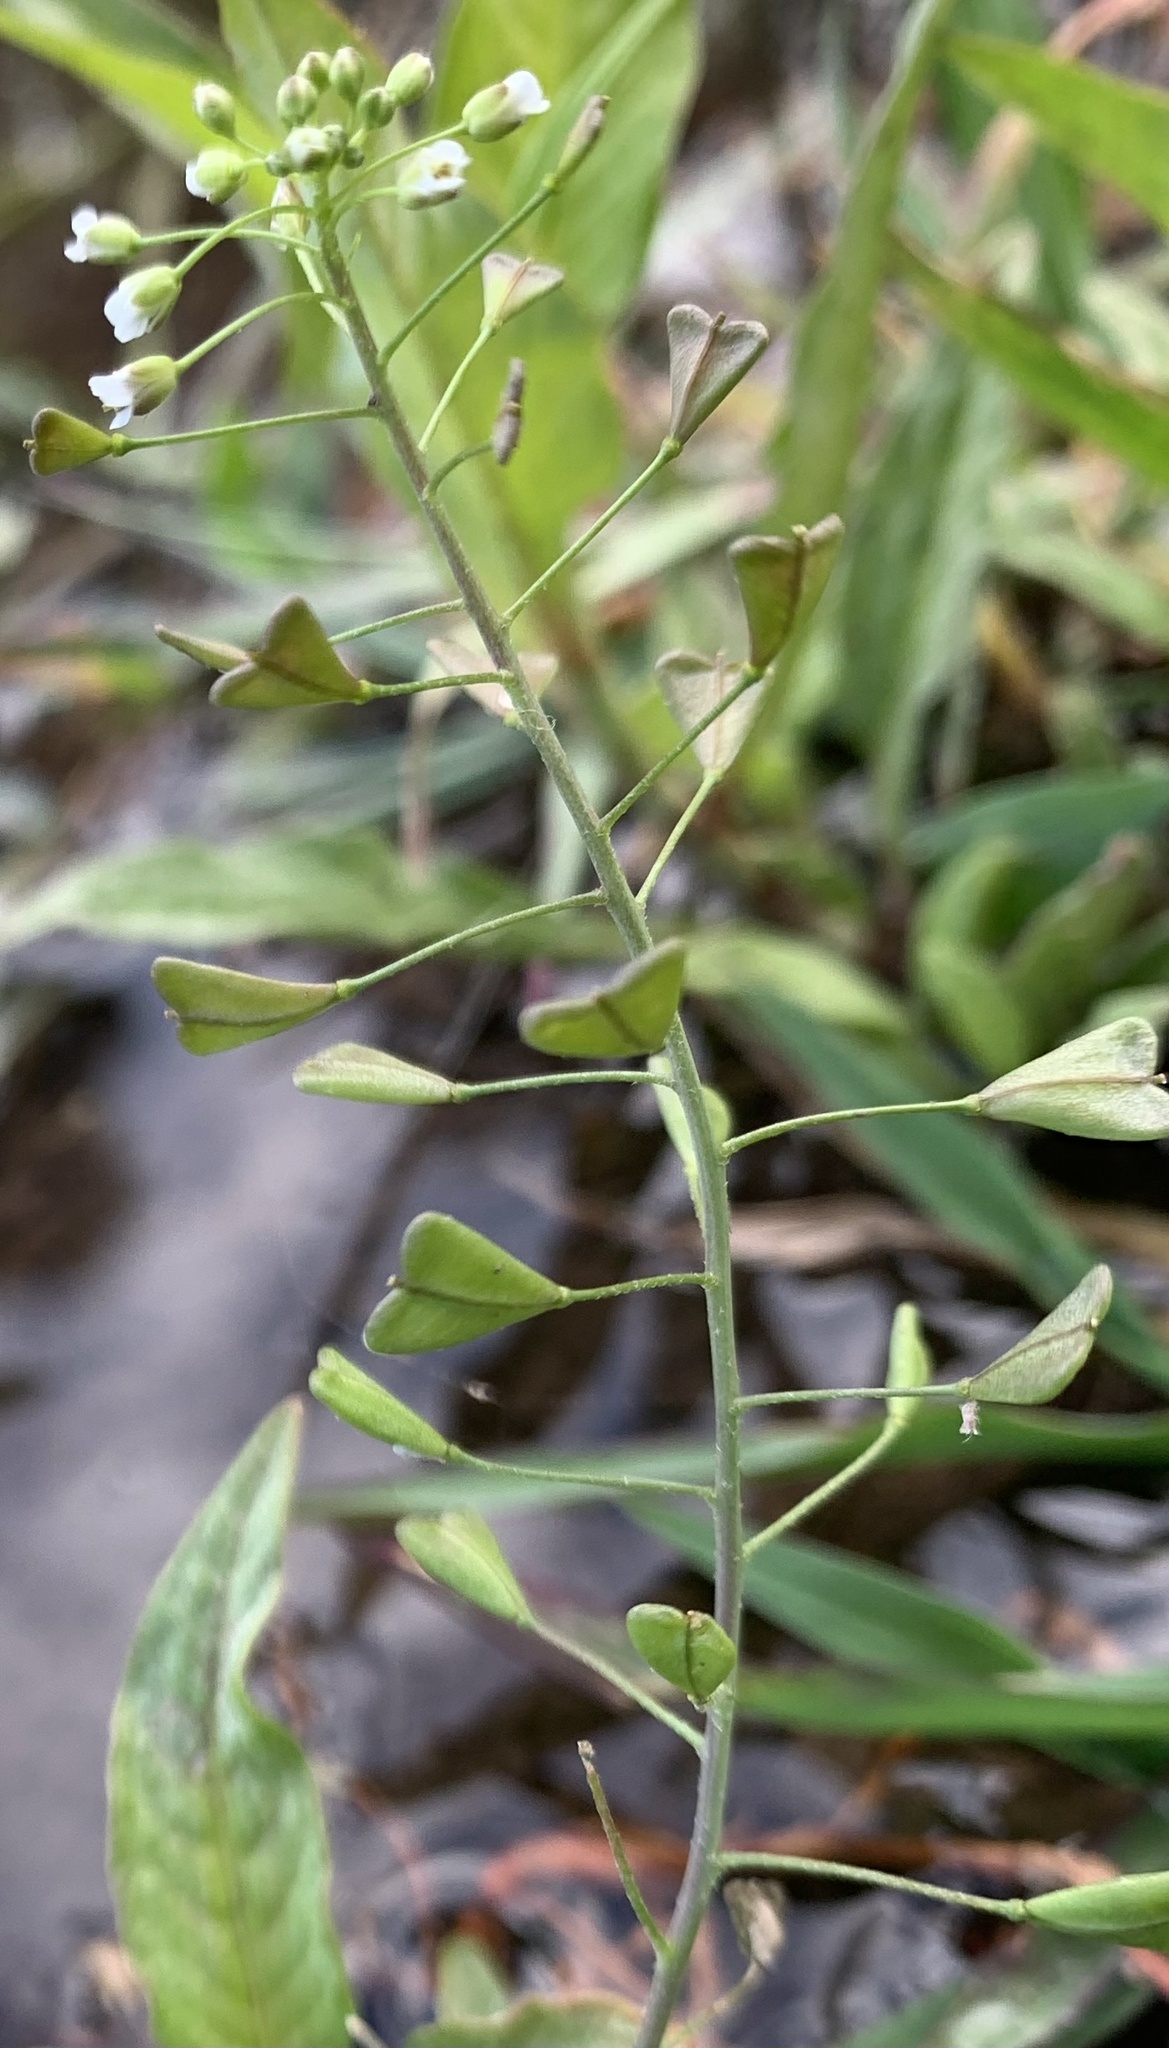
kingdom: Plantae
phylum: Tracheophyta
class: Magnoliopsida
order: Brassicales
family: Brassicaceae
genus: Capsella
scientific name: Capsella bursa-pastoris
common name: Shepherd's purse
